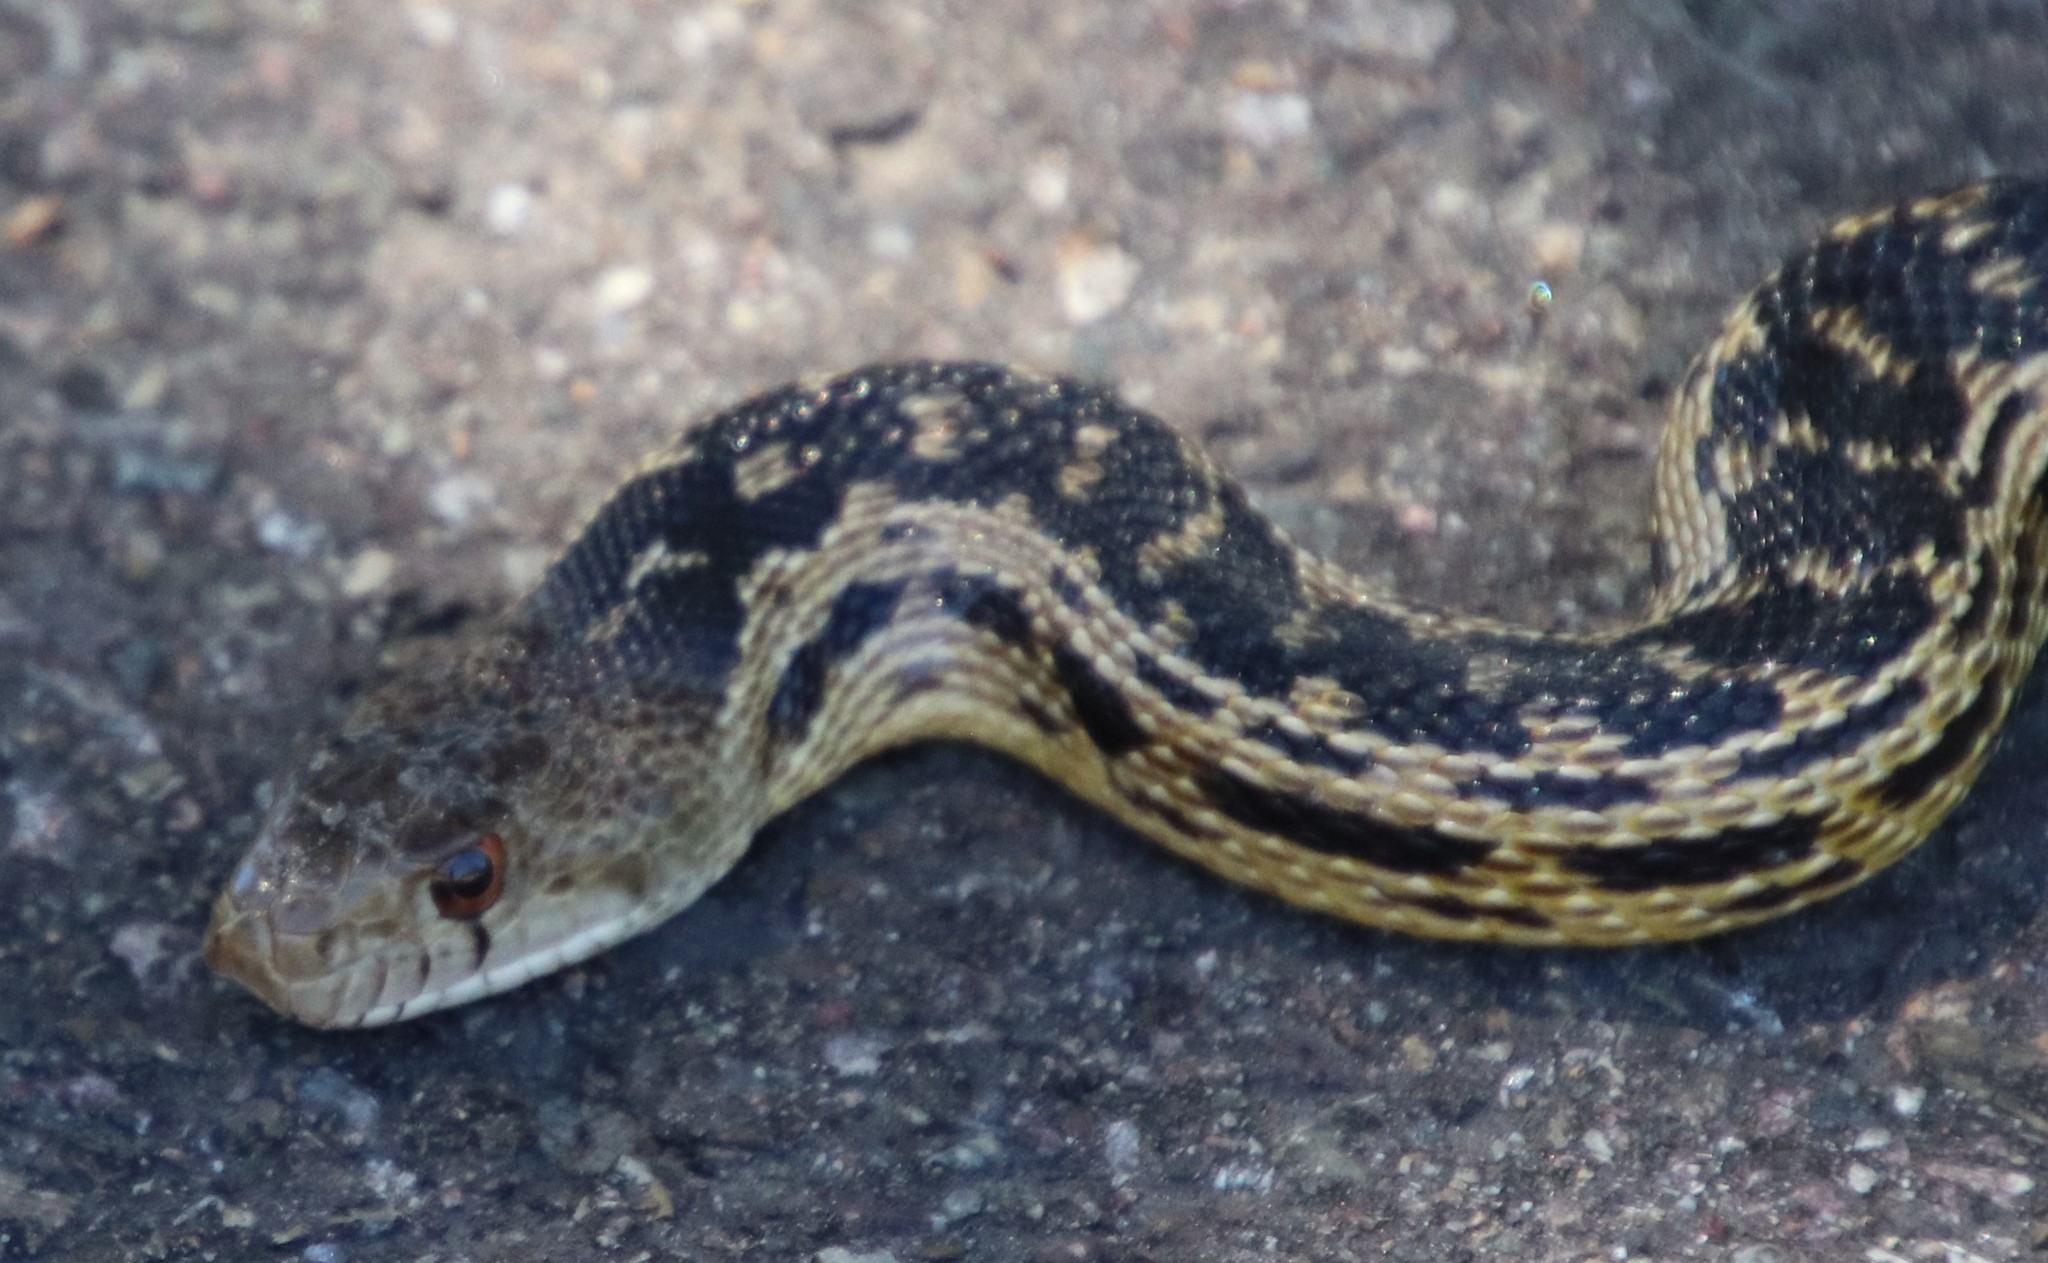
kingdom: Animalia
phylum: Chordata
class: Squamata
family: Colubridae
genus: Pituophis
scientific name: Pituophis catenifer
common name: Gopher snake
